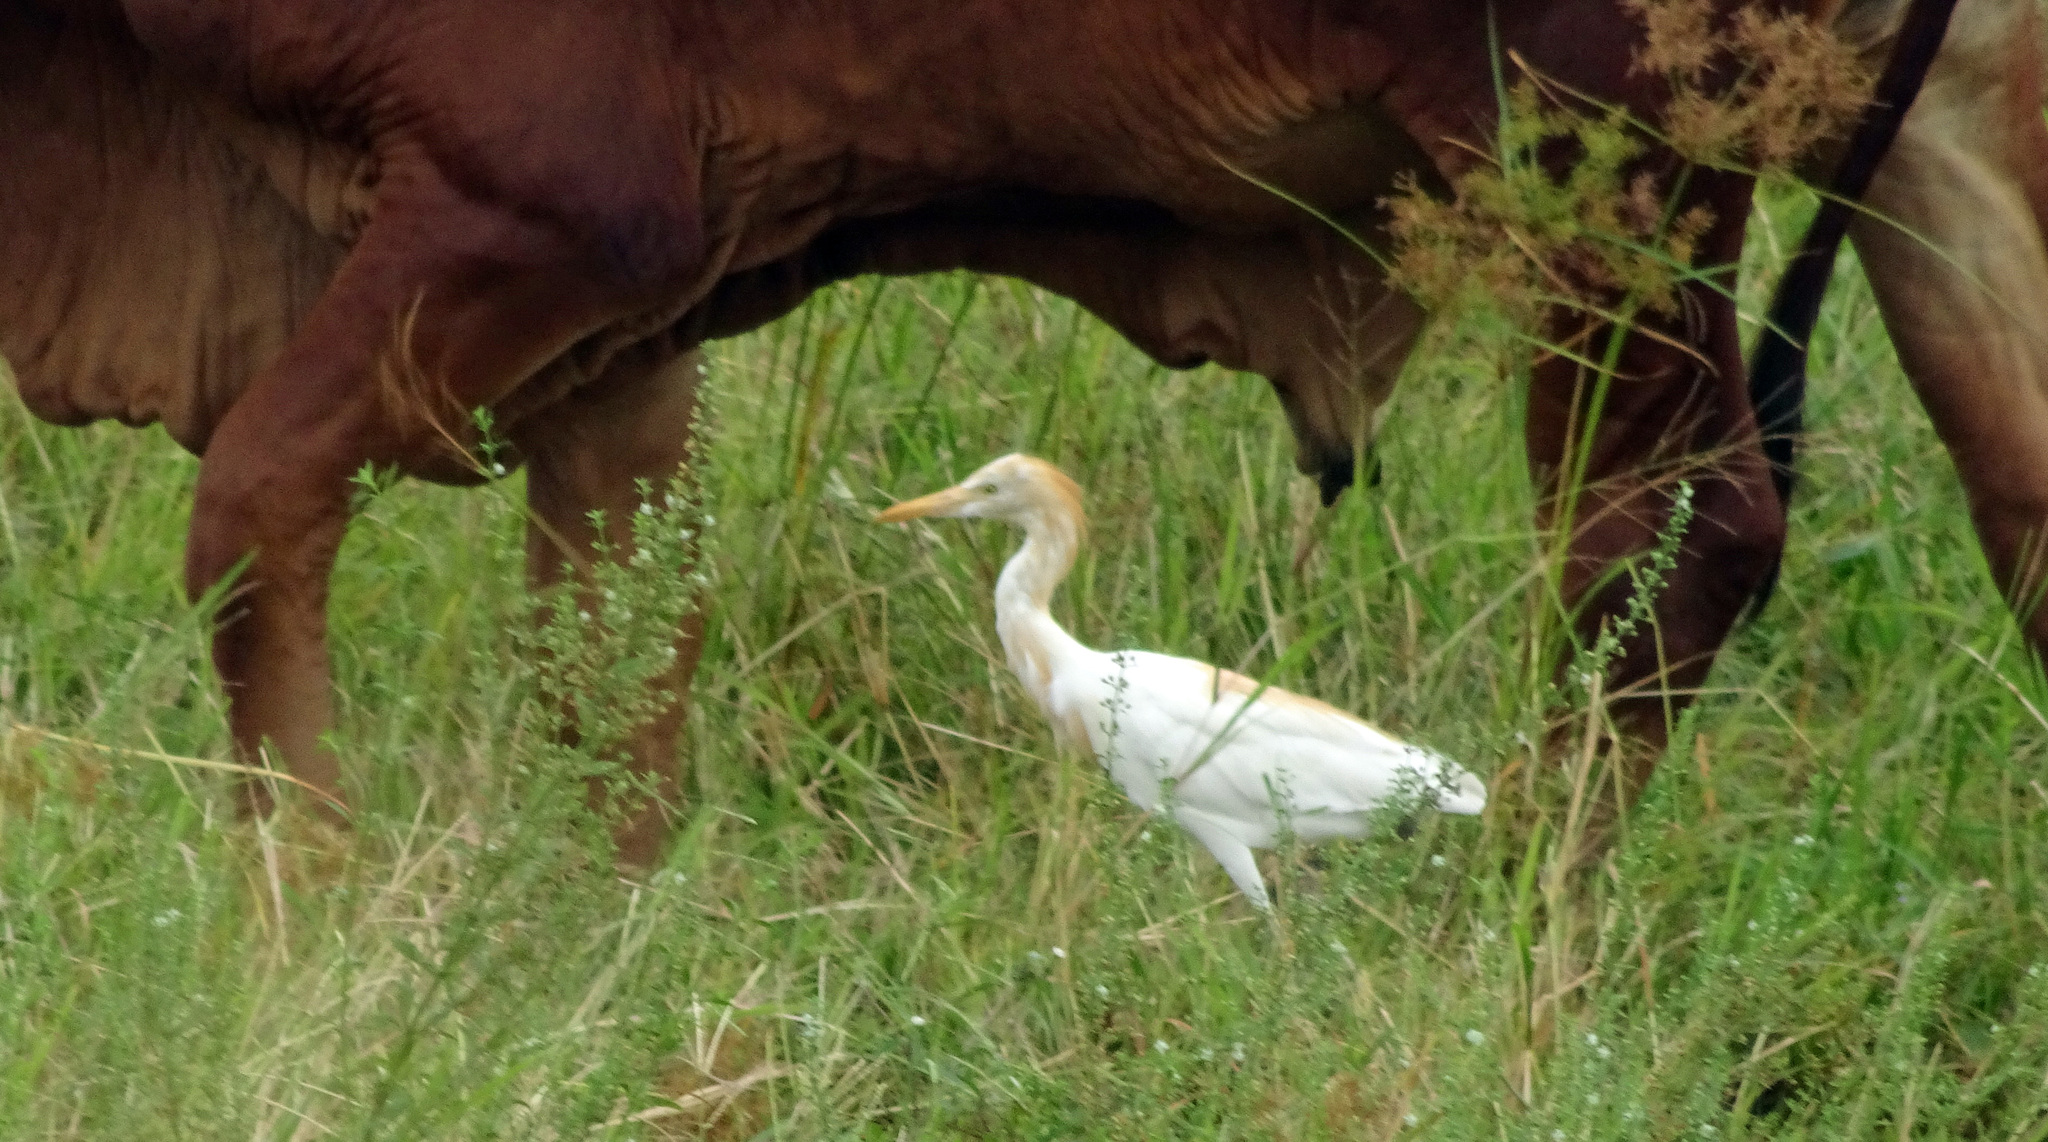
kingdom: Animalia
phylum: Chordata
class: Aves
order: Pelecaniformes
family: Ardeidae
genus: Bubulcus
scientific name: Bubulcus coromandus
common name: Eastern cattle egret
